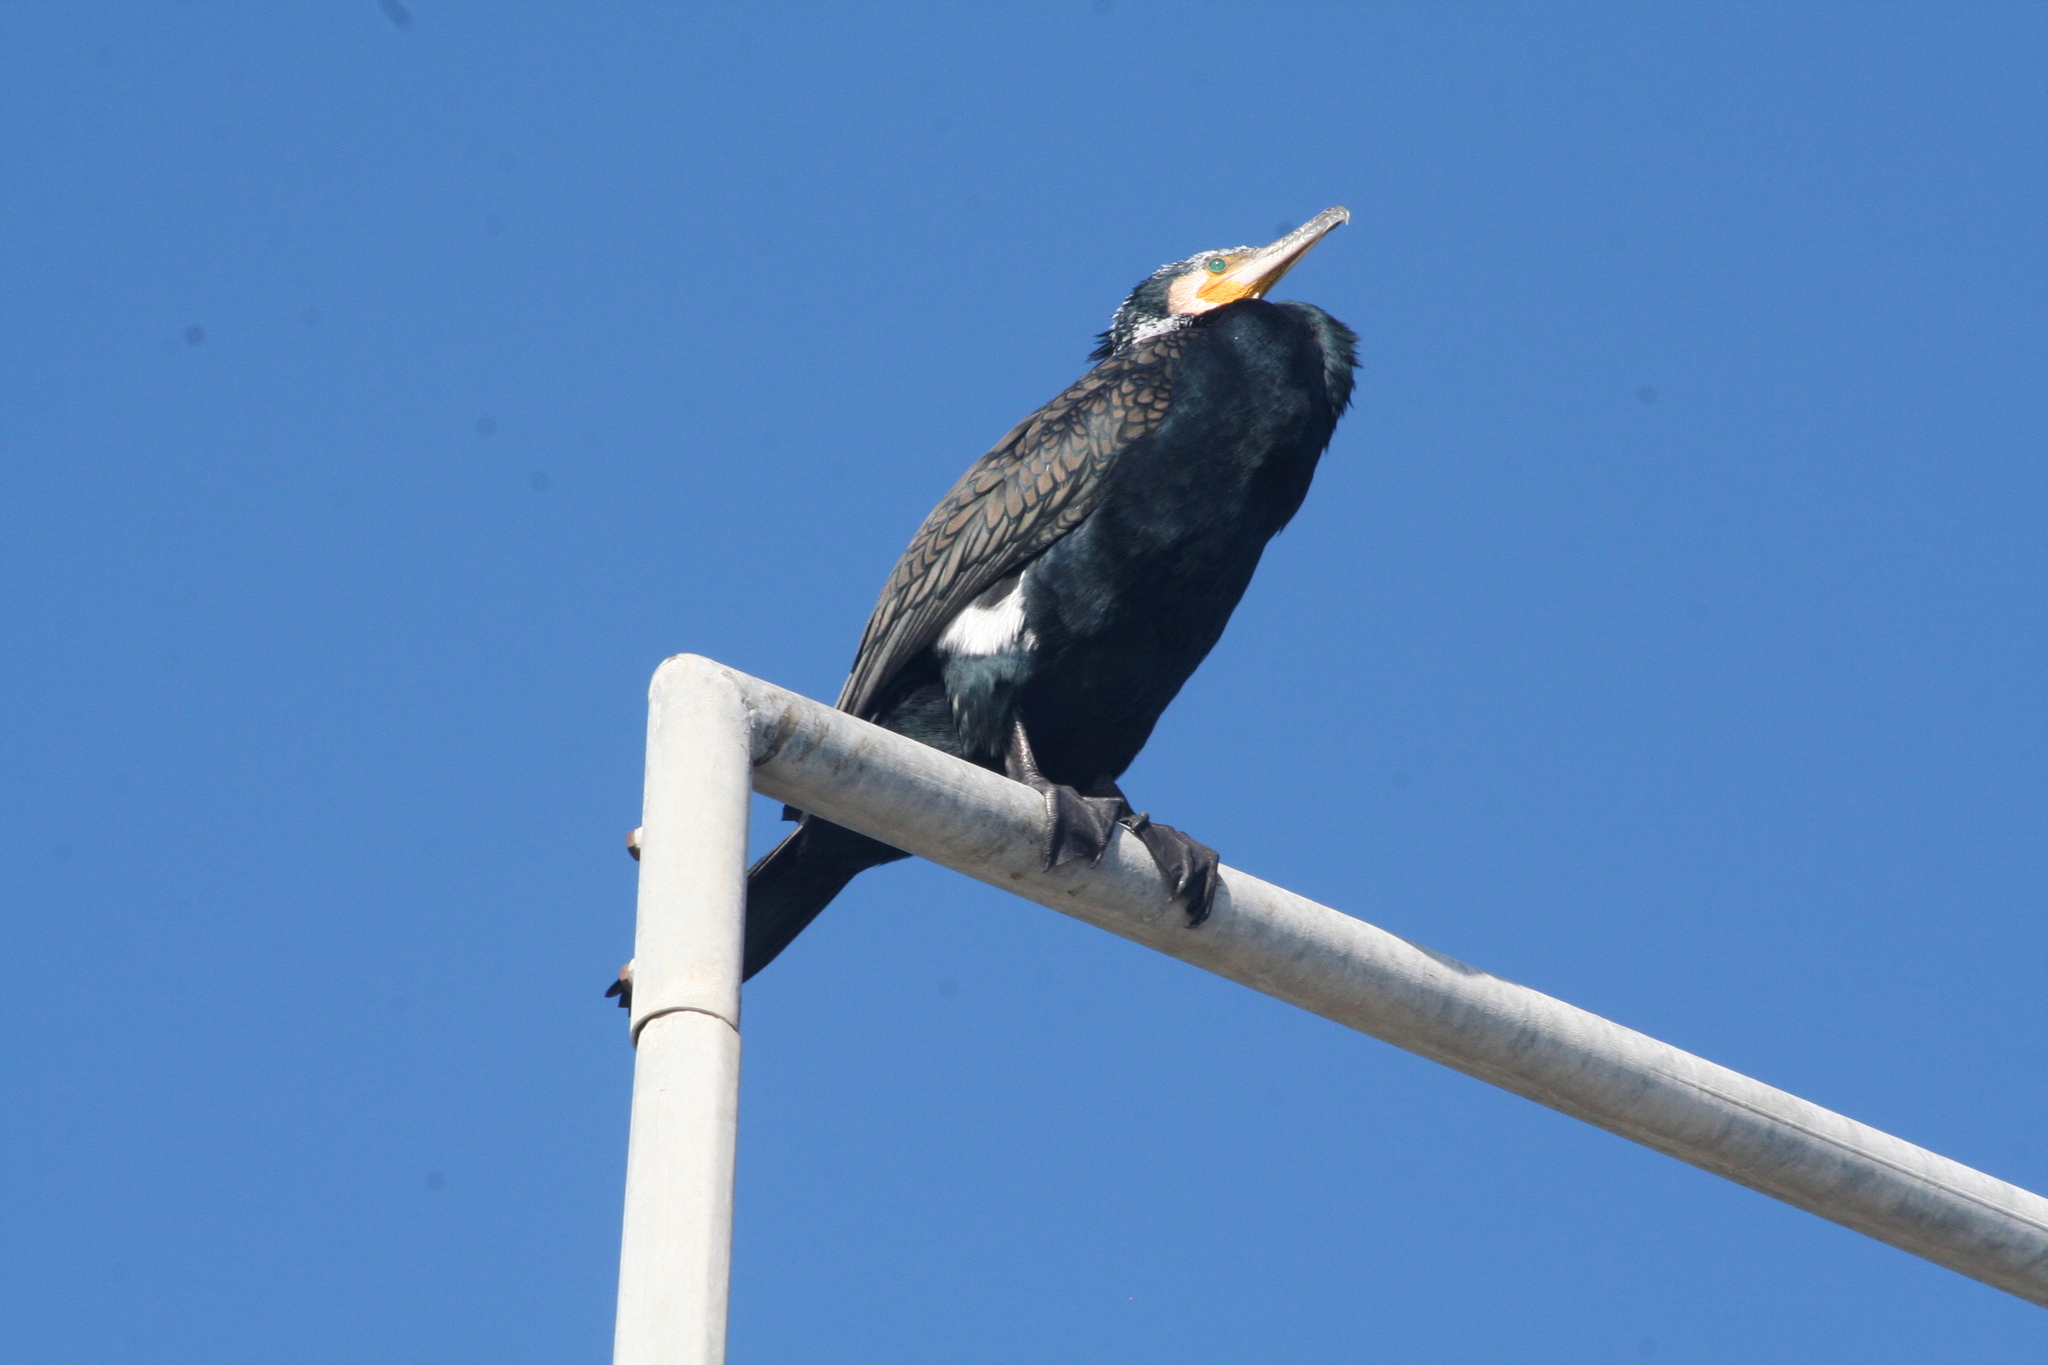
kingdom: Animalia
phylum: Chordata
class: Aves
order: Suliformes
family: Phalacrocoracidae
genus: Phalacrocorax
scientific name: Phalacrocorax carbo
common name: Great cormorant
